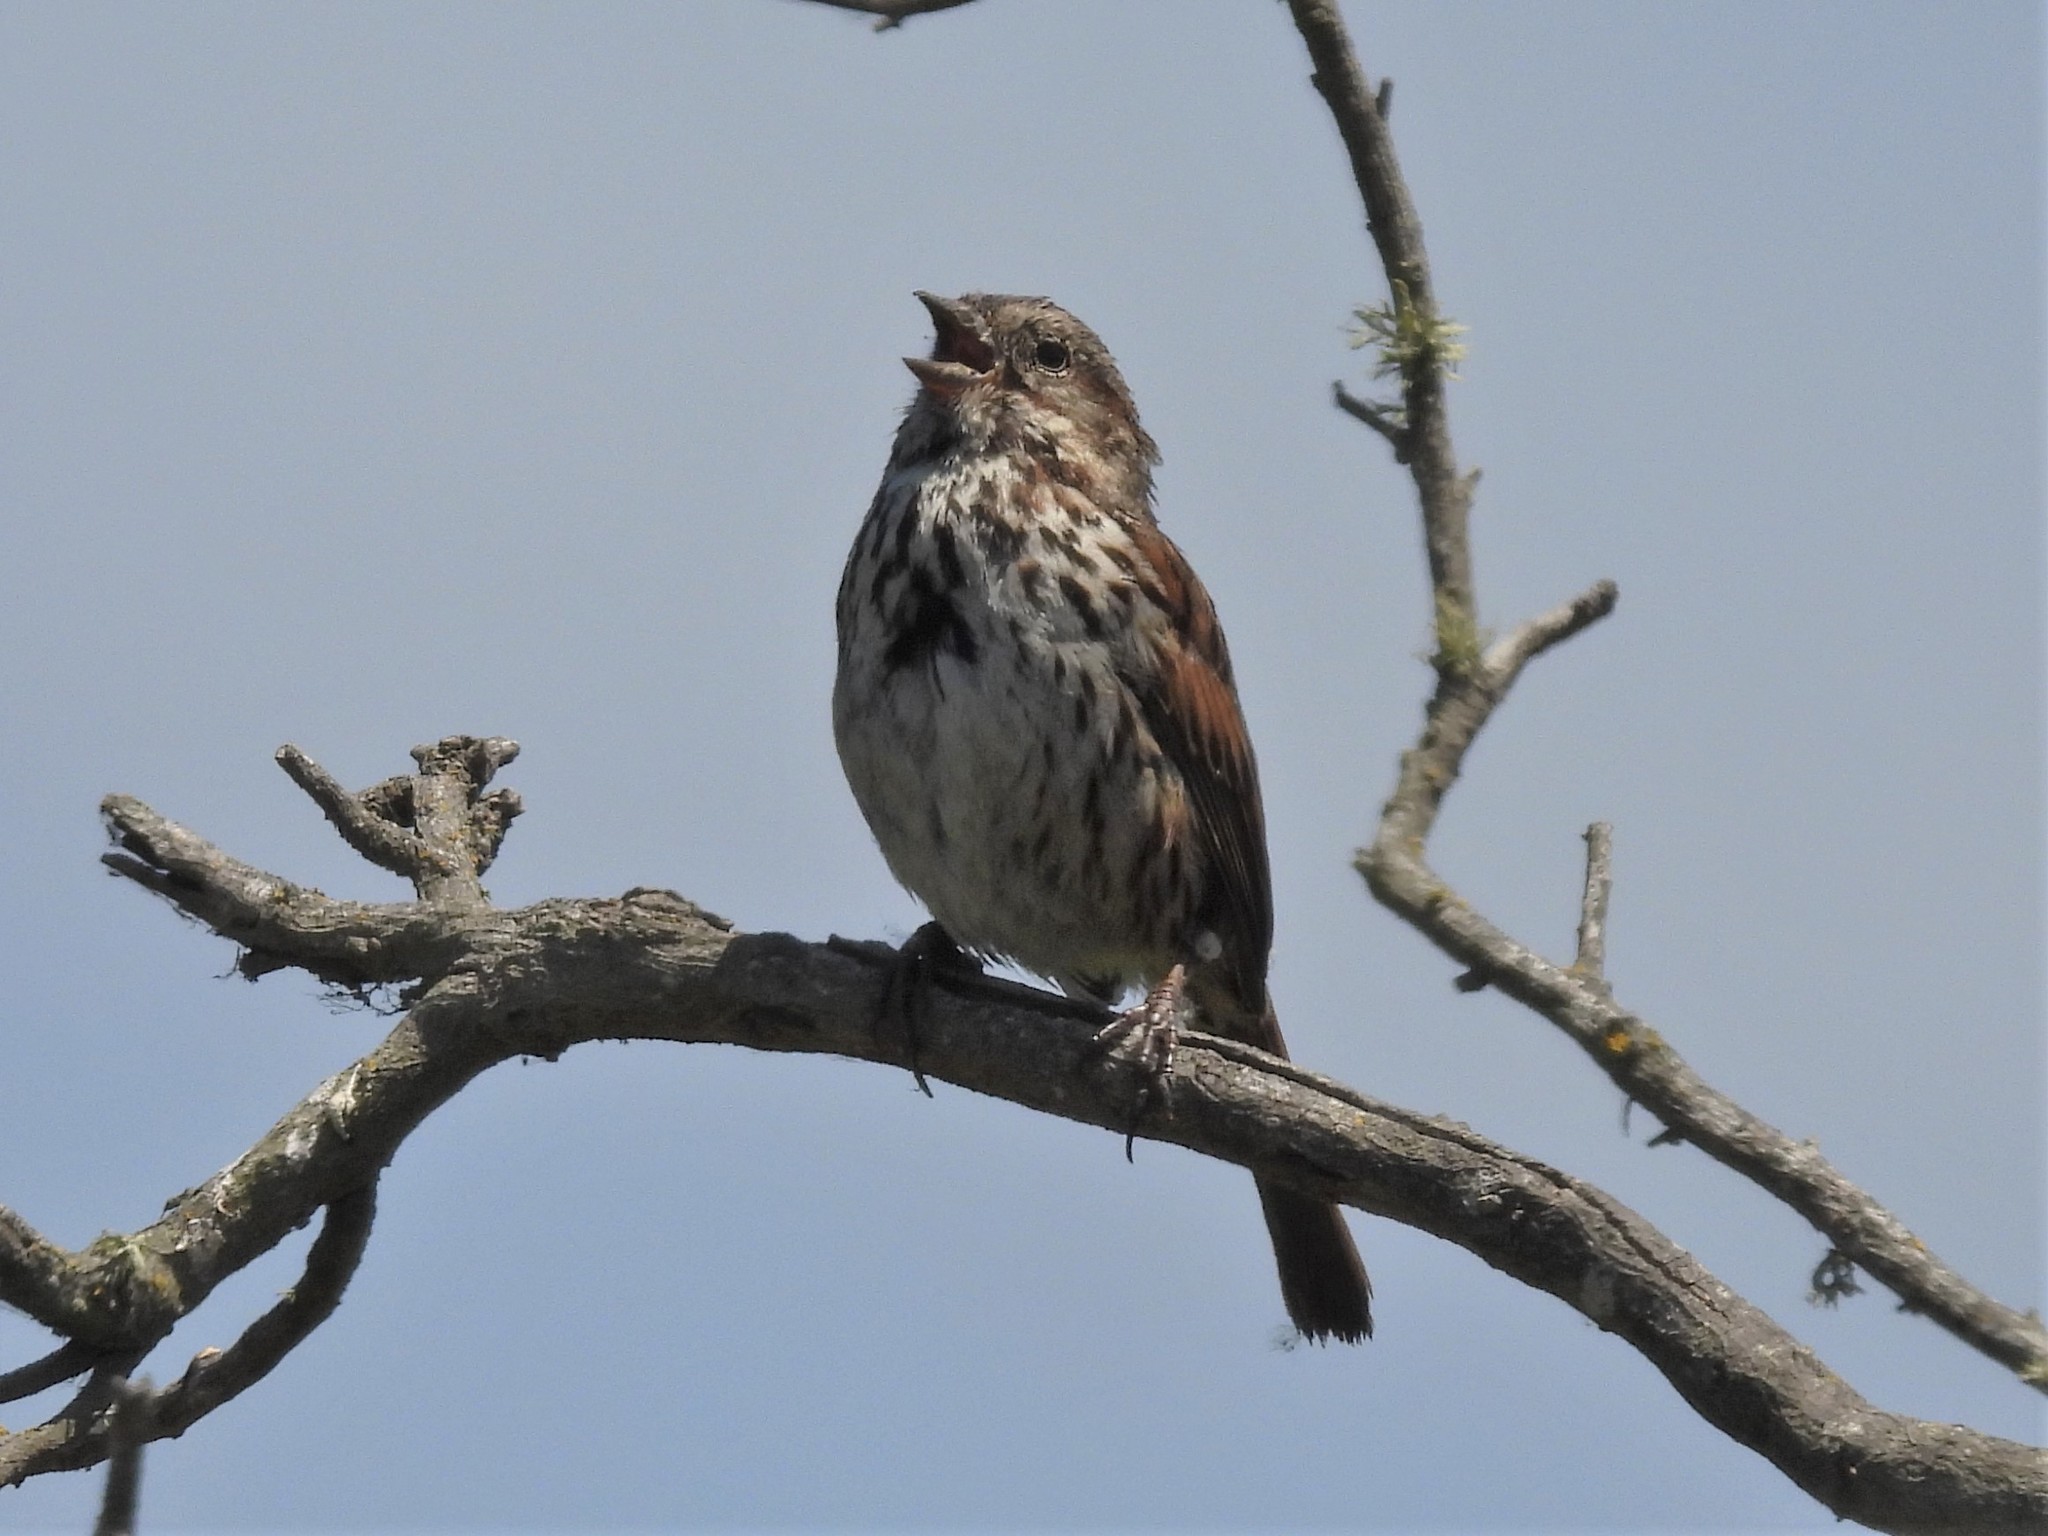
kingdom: Animalia
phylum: Chordata
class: Aves
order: Passeriformes
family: Passerellidae
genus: Melospiza
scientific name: Melospiza melodia
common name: Song sparrow
